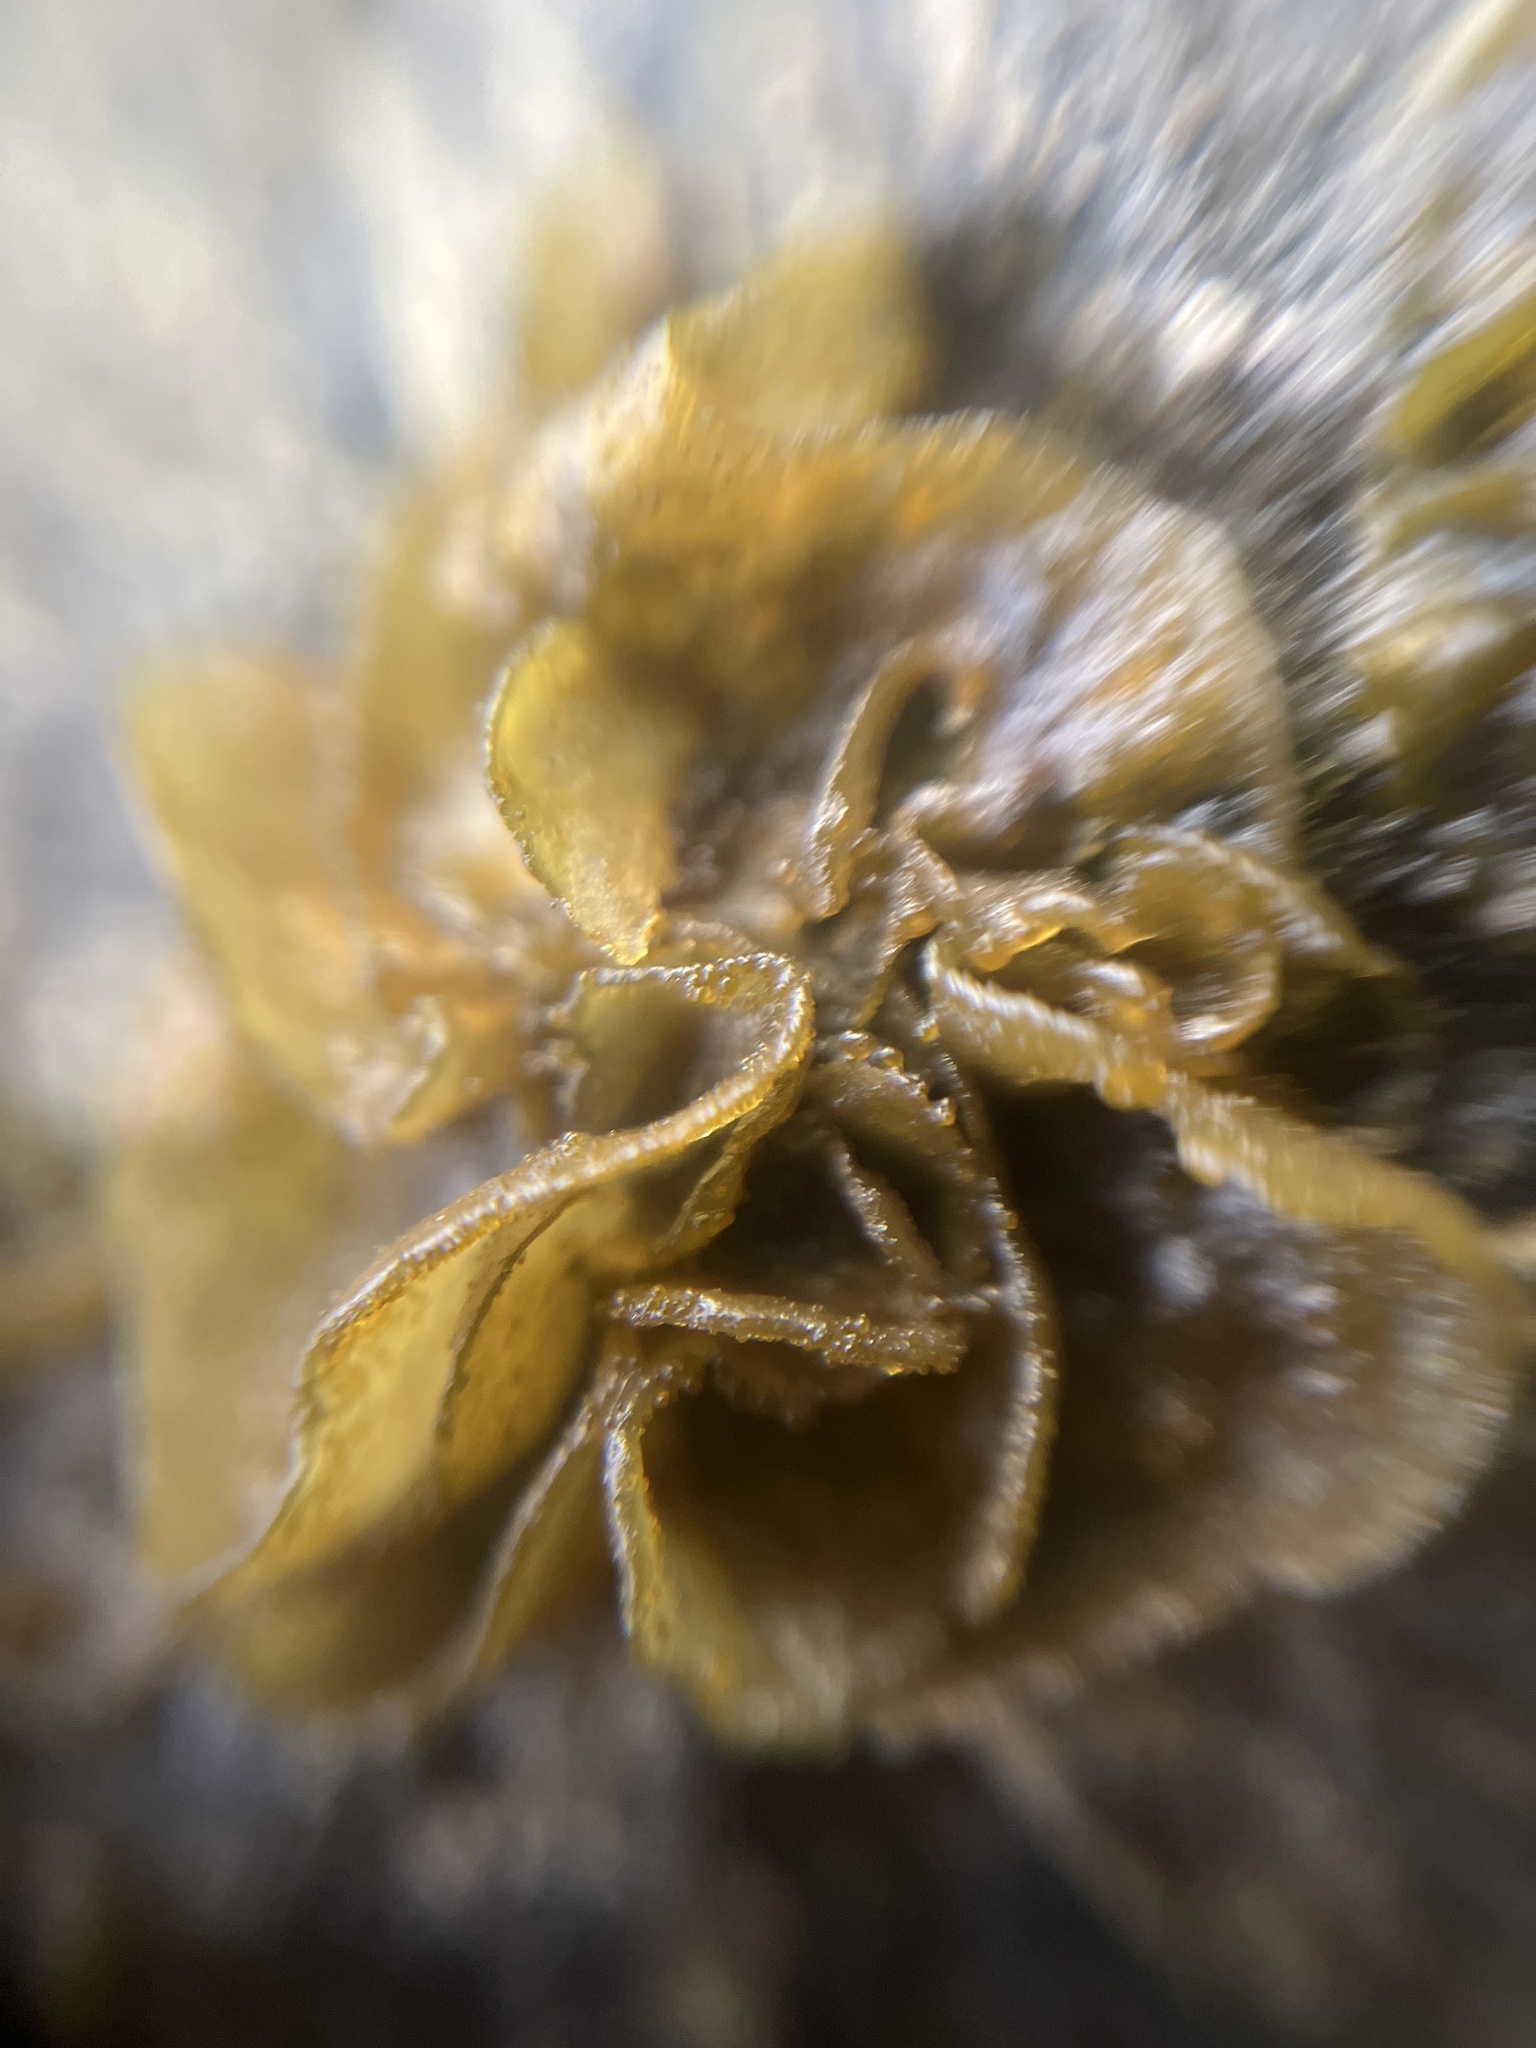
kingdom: Fungi
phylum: Ascomycota
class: Lecanoromycetes
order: Peltigerales
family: Collemataceae
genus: Lathagrium
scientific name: Lathagrium fuscovirens
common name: Crumpled rock tarpaper lichen
